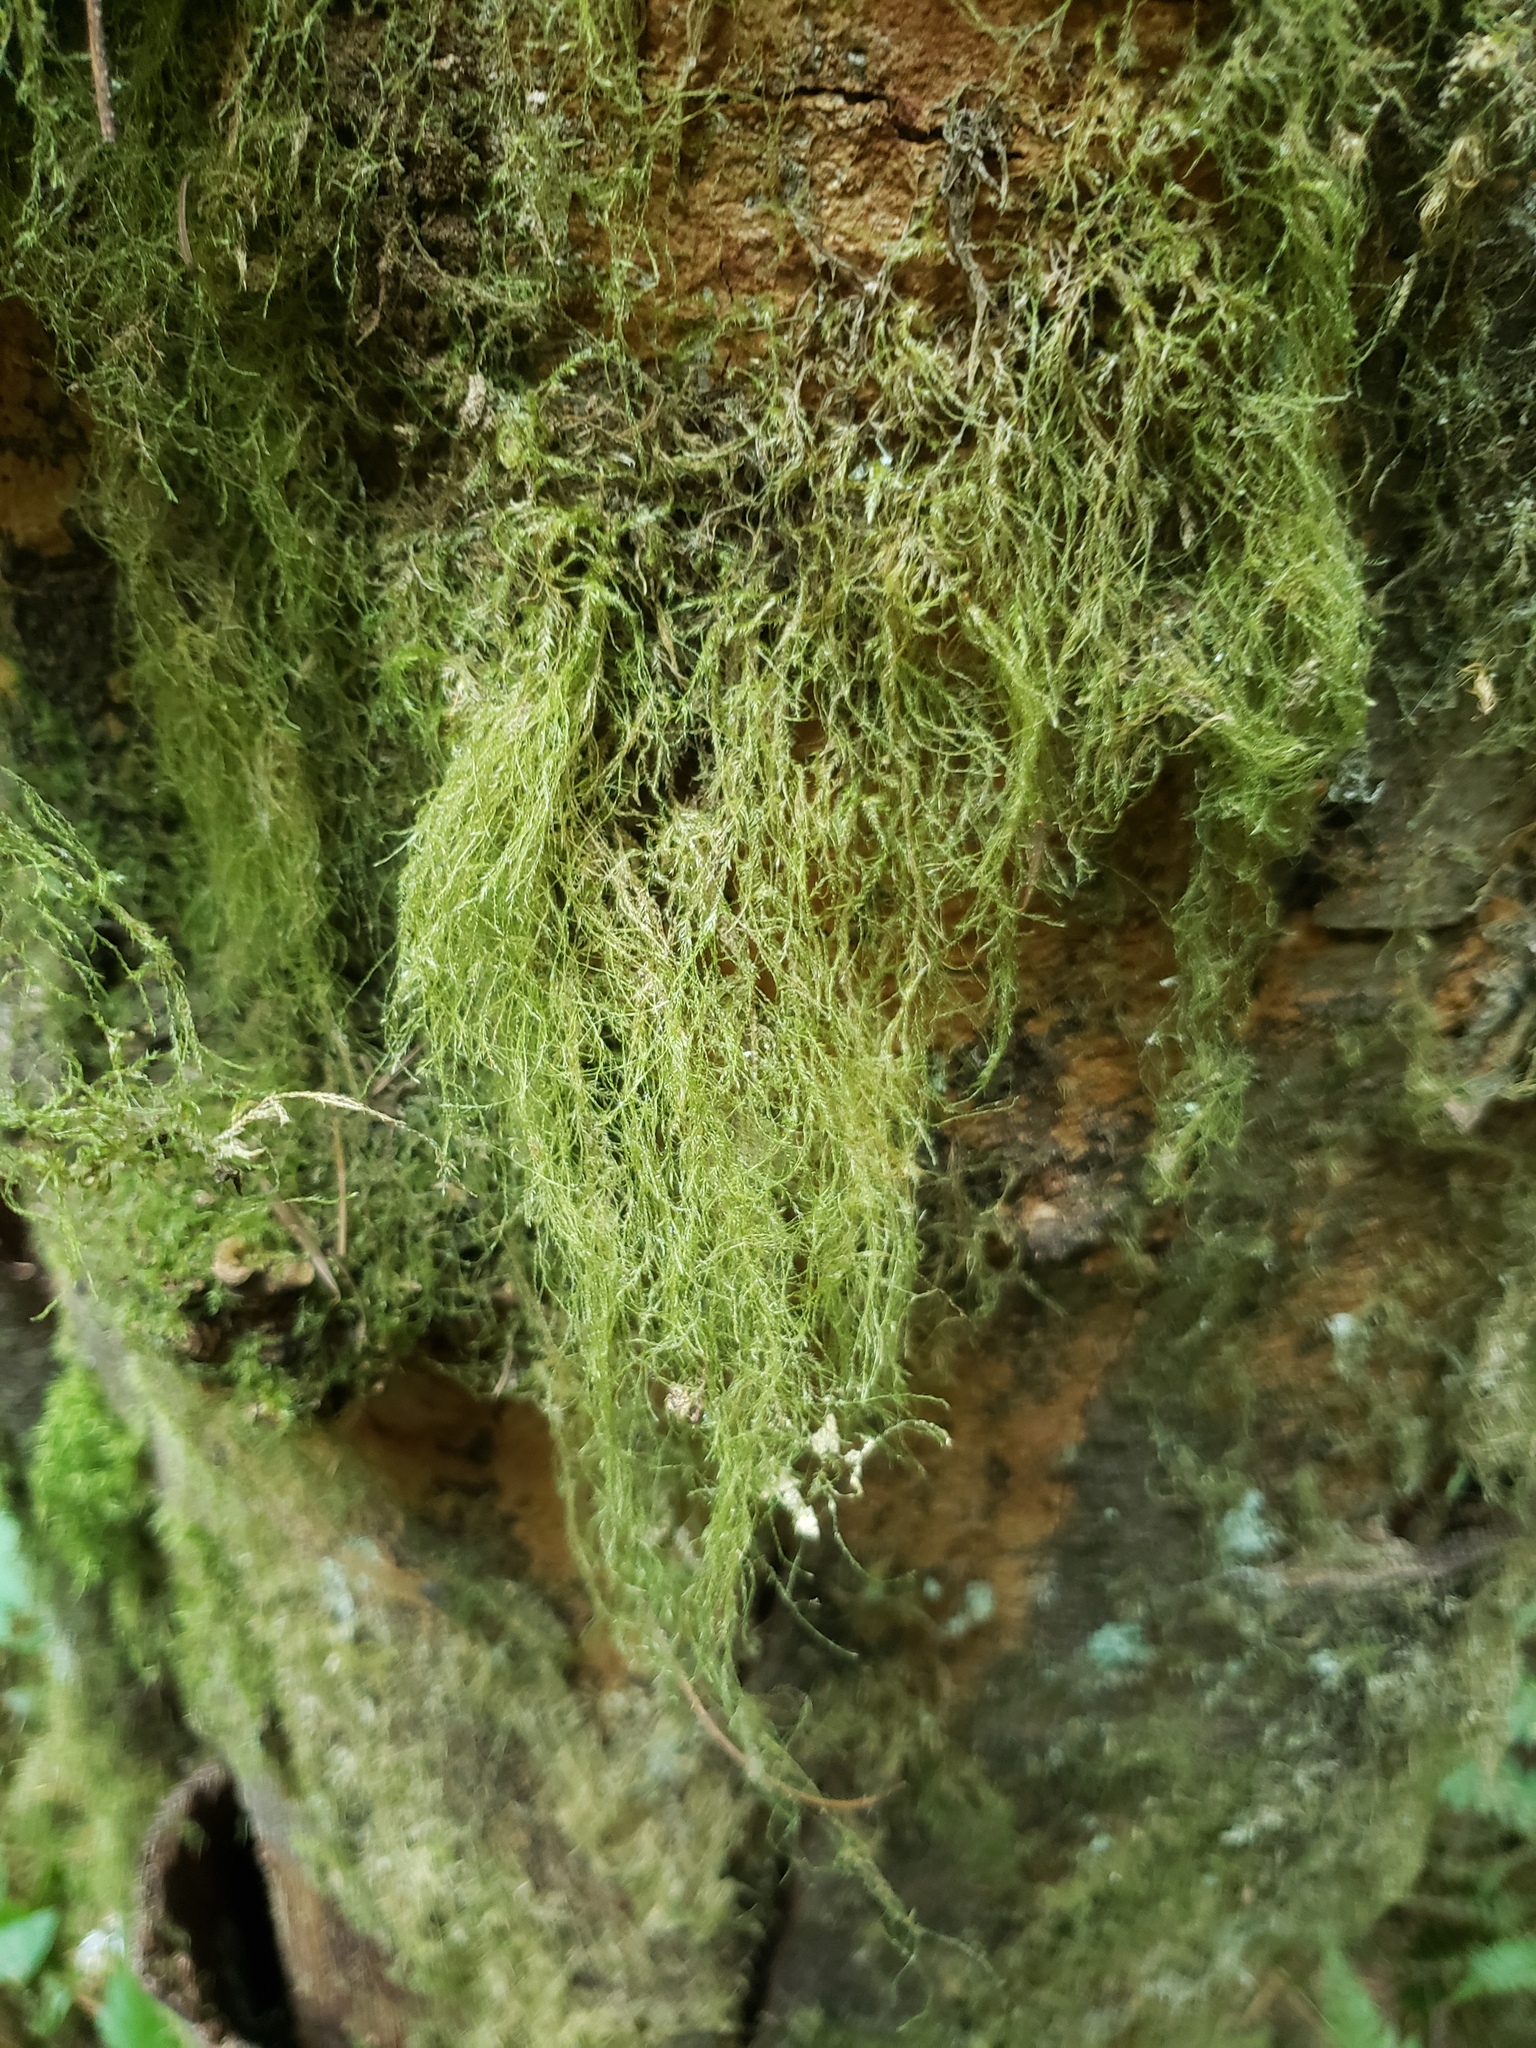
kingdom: Plantae
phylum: Bryophyta
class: Bryopsida
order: Hypnales
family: Lembophyllaceae
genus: Pseudisothecium
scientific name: Pseudisothecium stoloniferum
